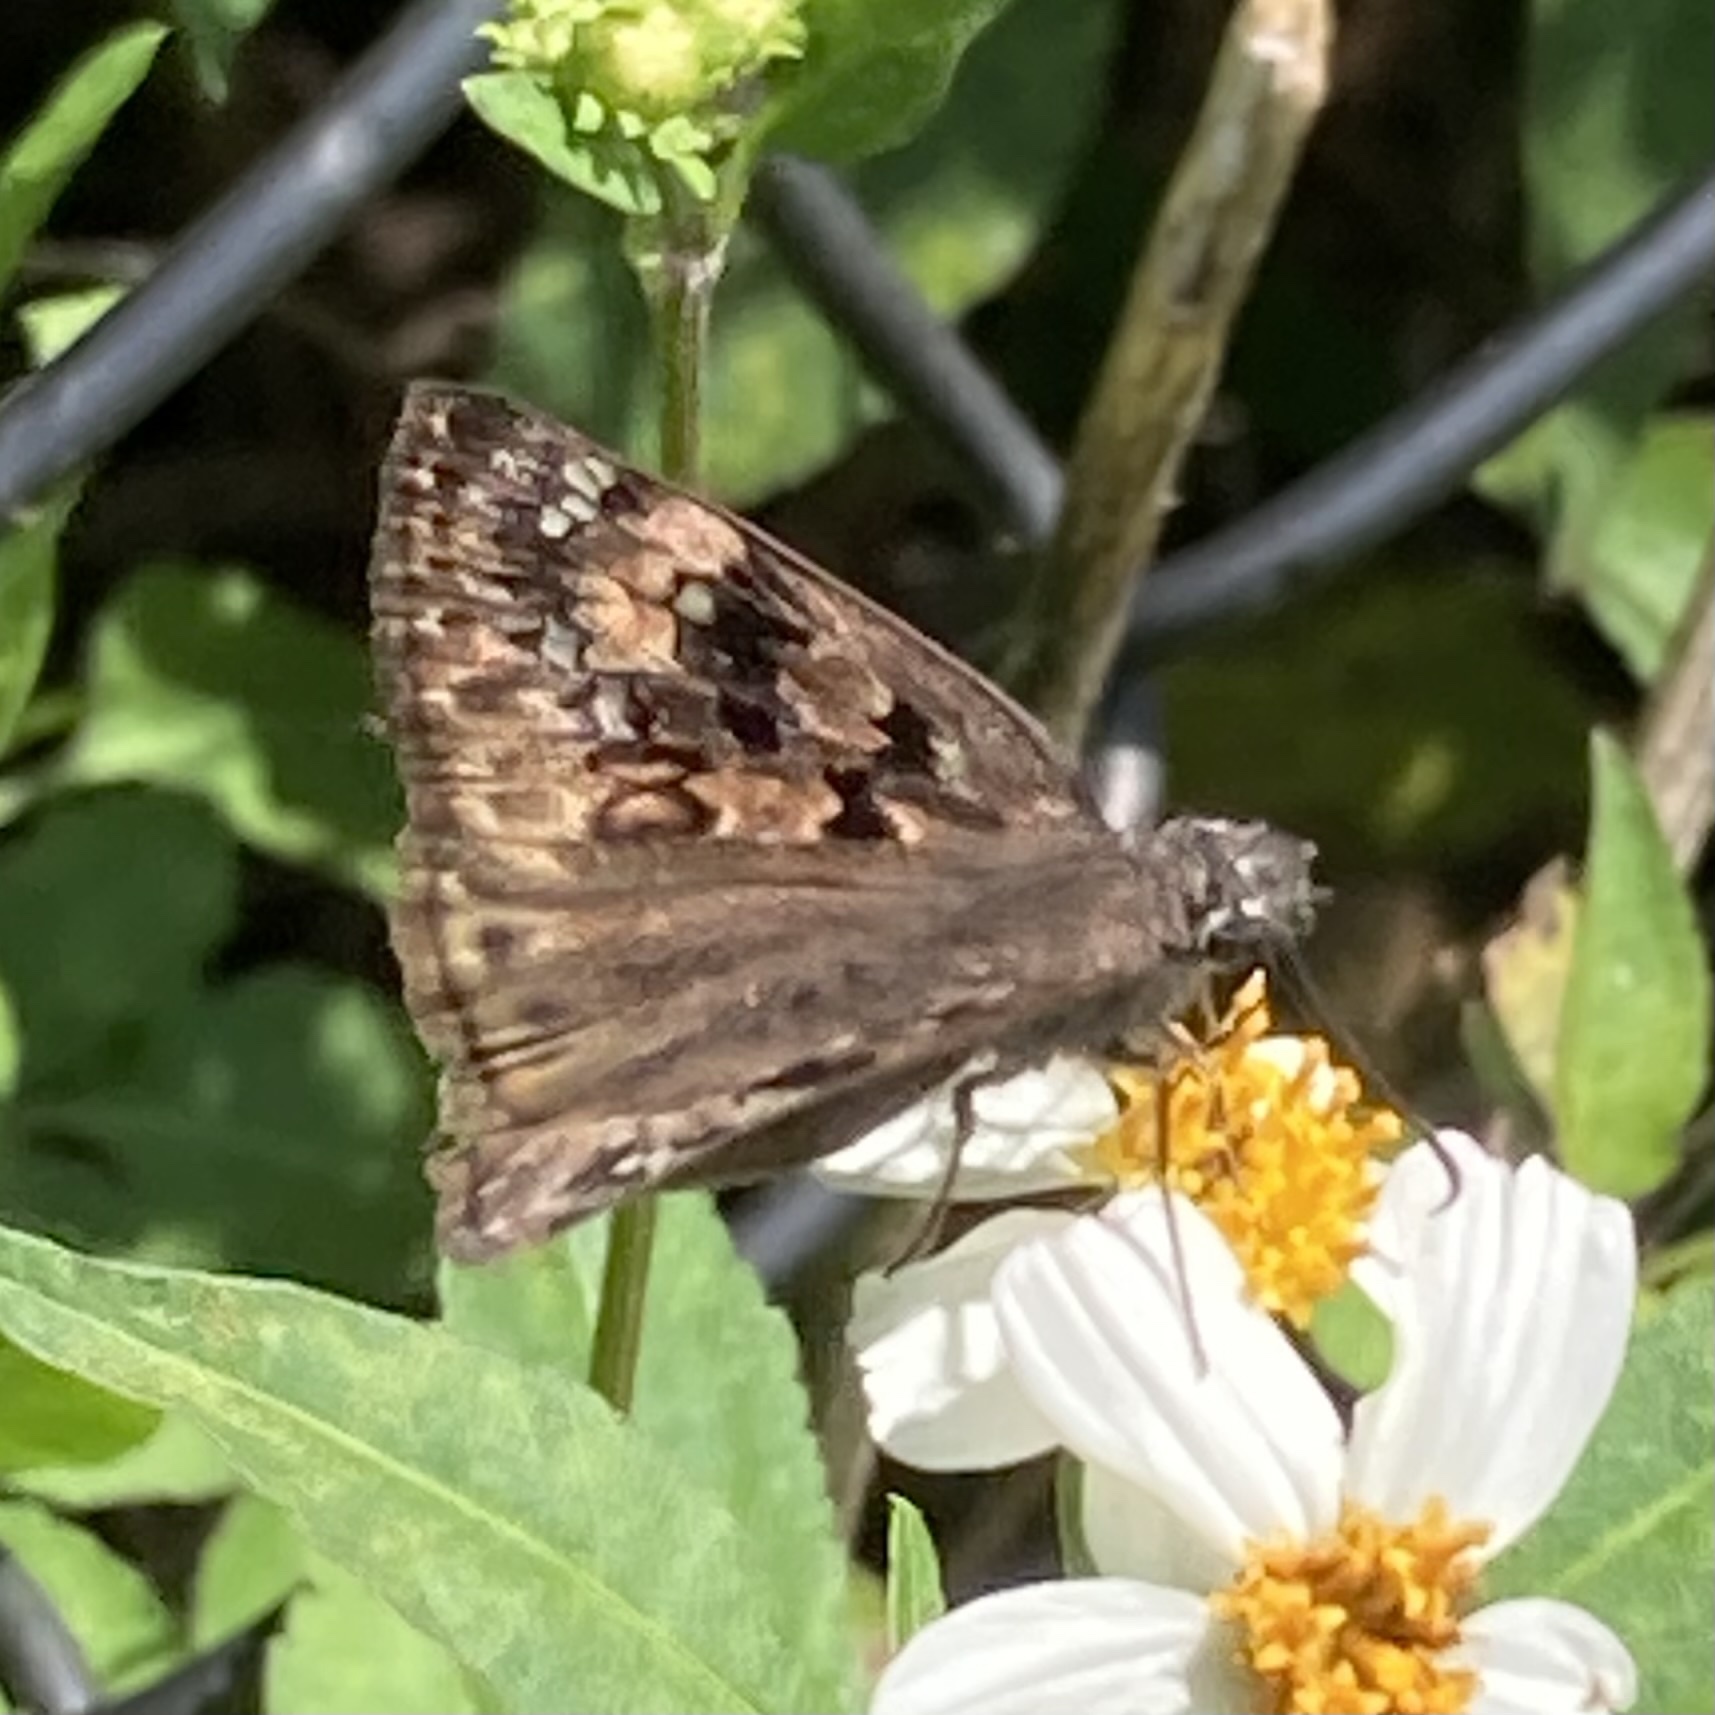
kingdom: Animalia
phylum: Arthropoda
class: Insecta
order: Lepidoptera
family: Hesperiidae
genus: Erynnis
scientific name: Erynnis horatius
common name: Horace's duskywing
